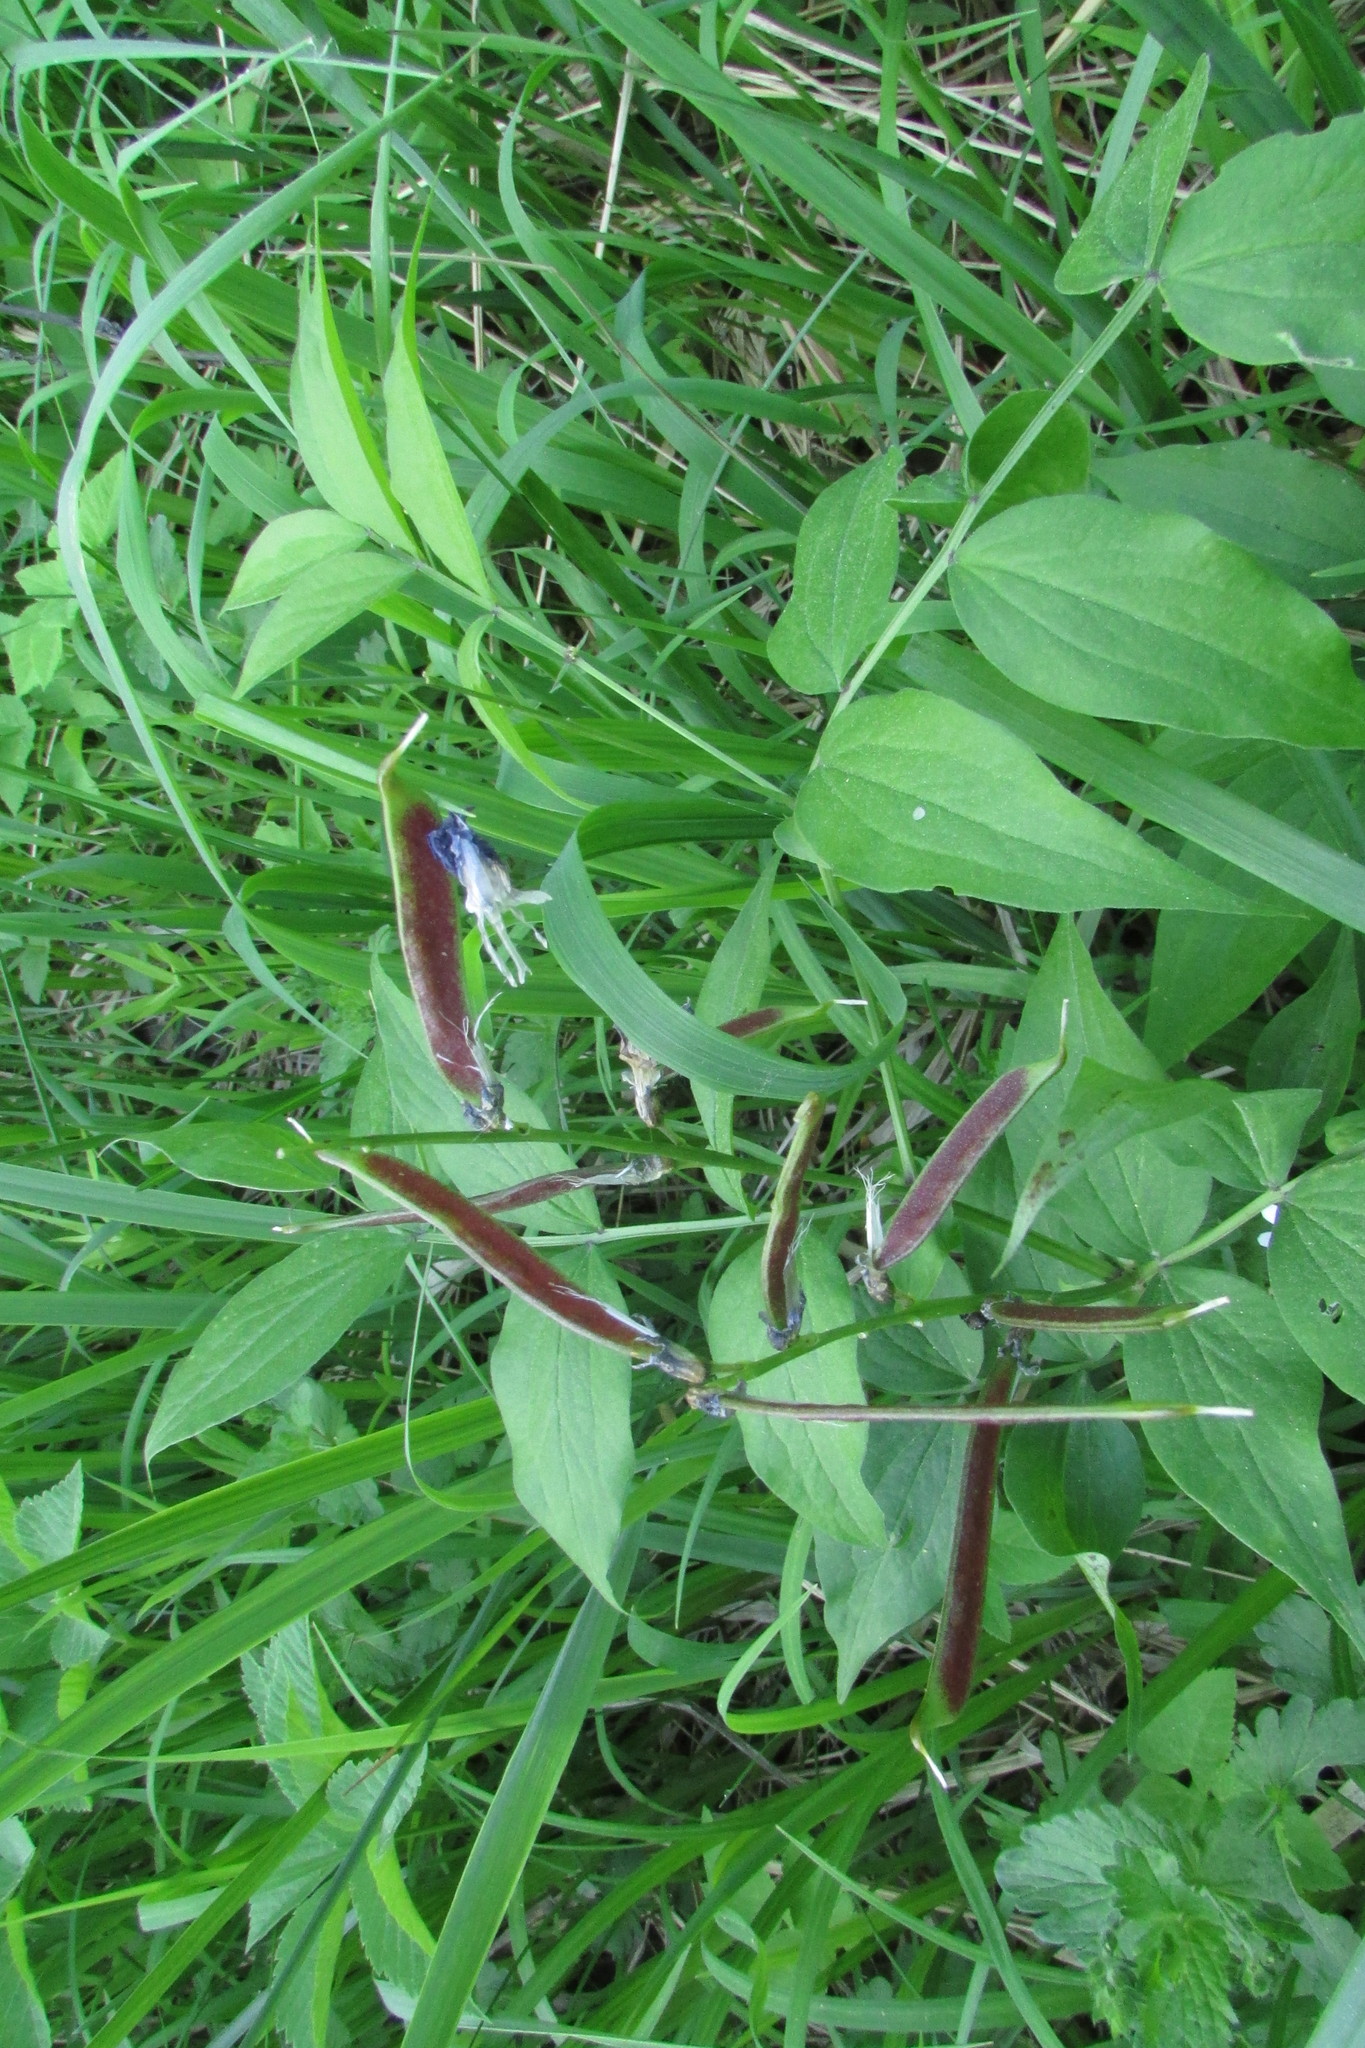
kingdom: Plantae
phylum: Tracheophyta
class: Magnoliopsida
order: Fabales
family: Fabaceae
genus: Lathyrus
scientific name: Lathyrus vernus
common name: Spring pea
